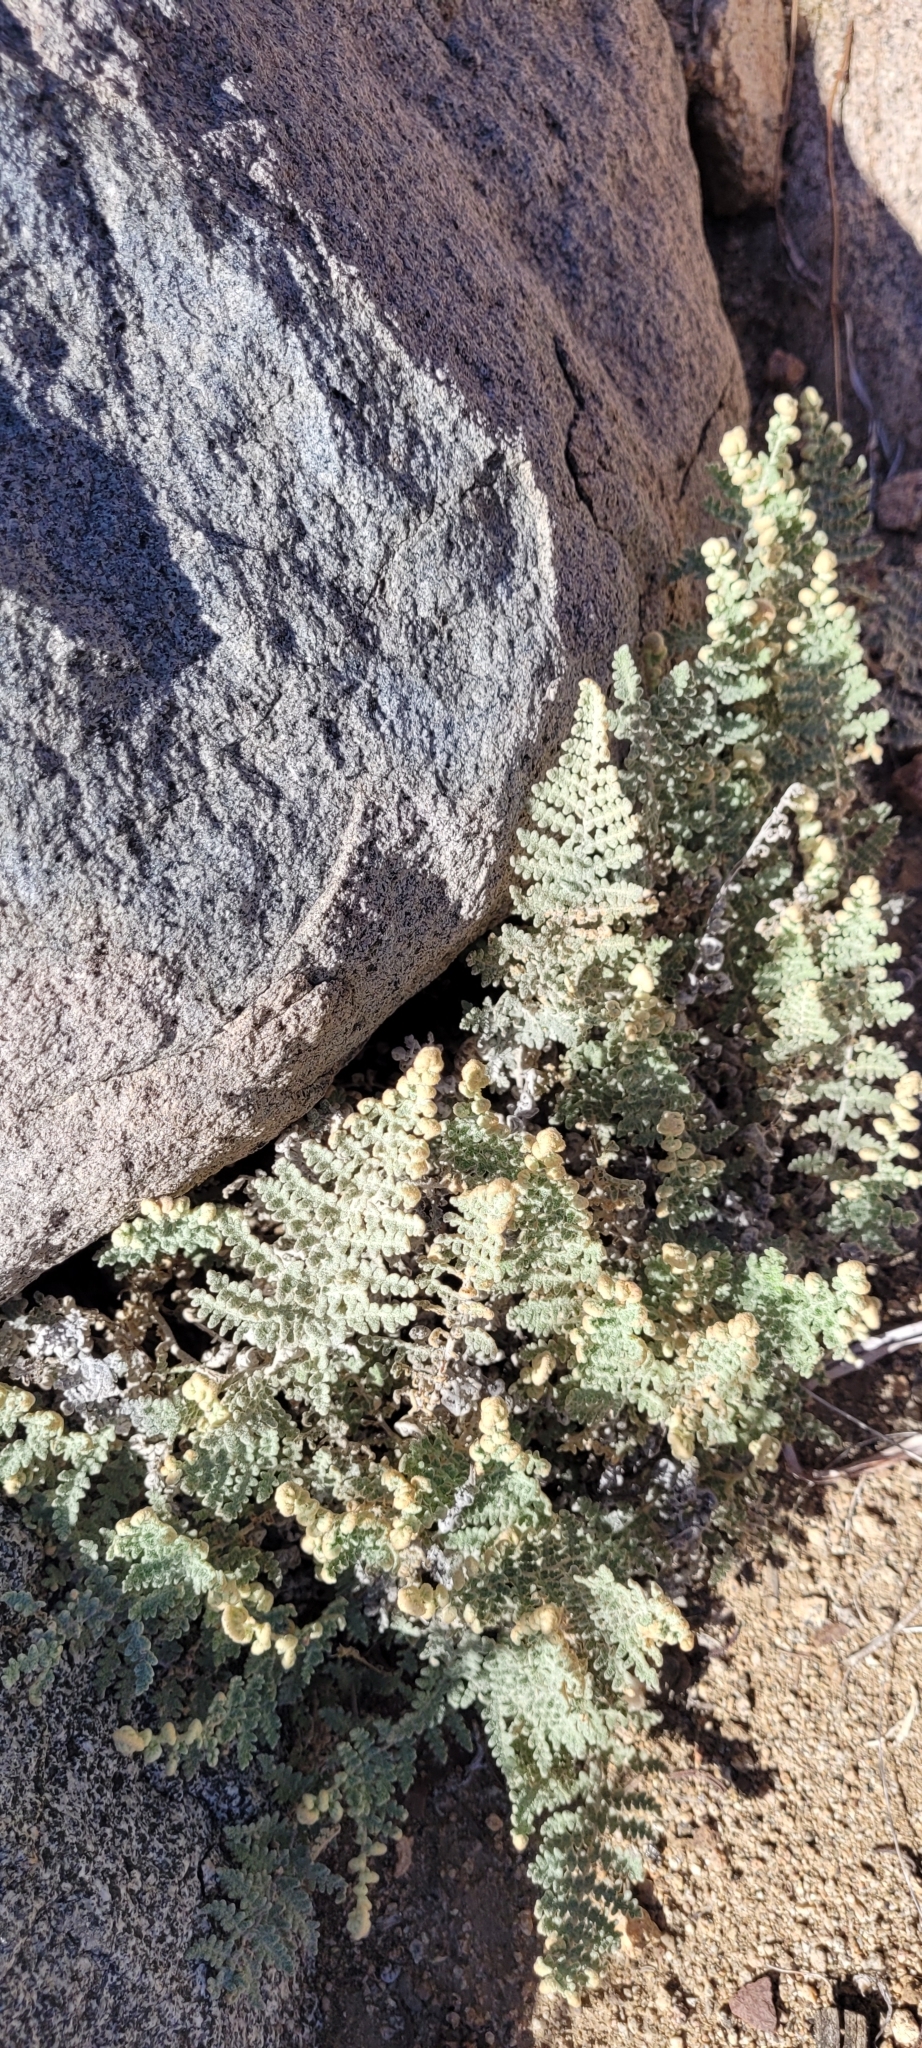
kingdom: Plantae
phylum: Tracheophyta
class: Polypodiopsida
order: Polypodiales
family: Pteridaceae
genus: Cheilanthes
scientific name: Cheilanthes mollis
